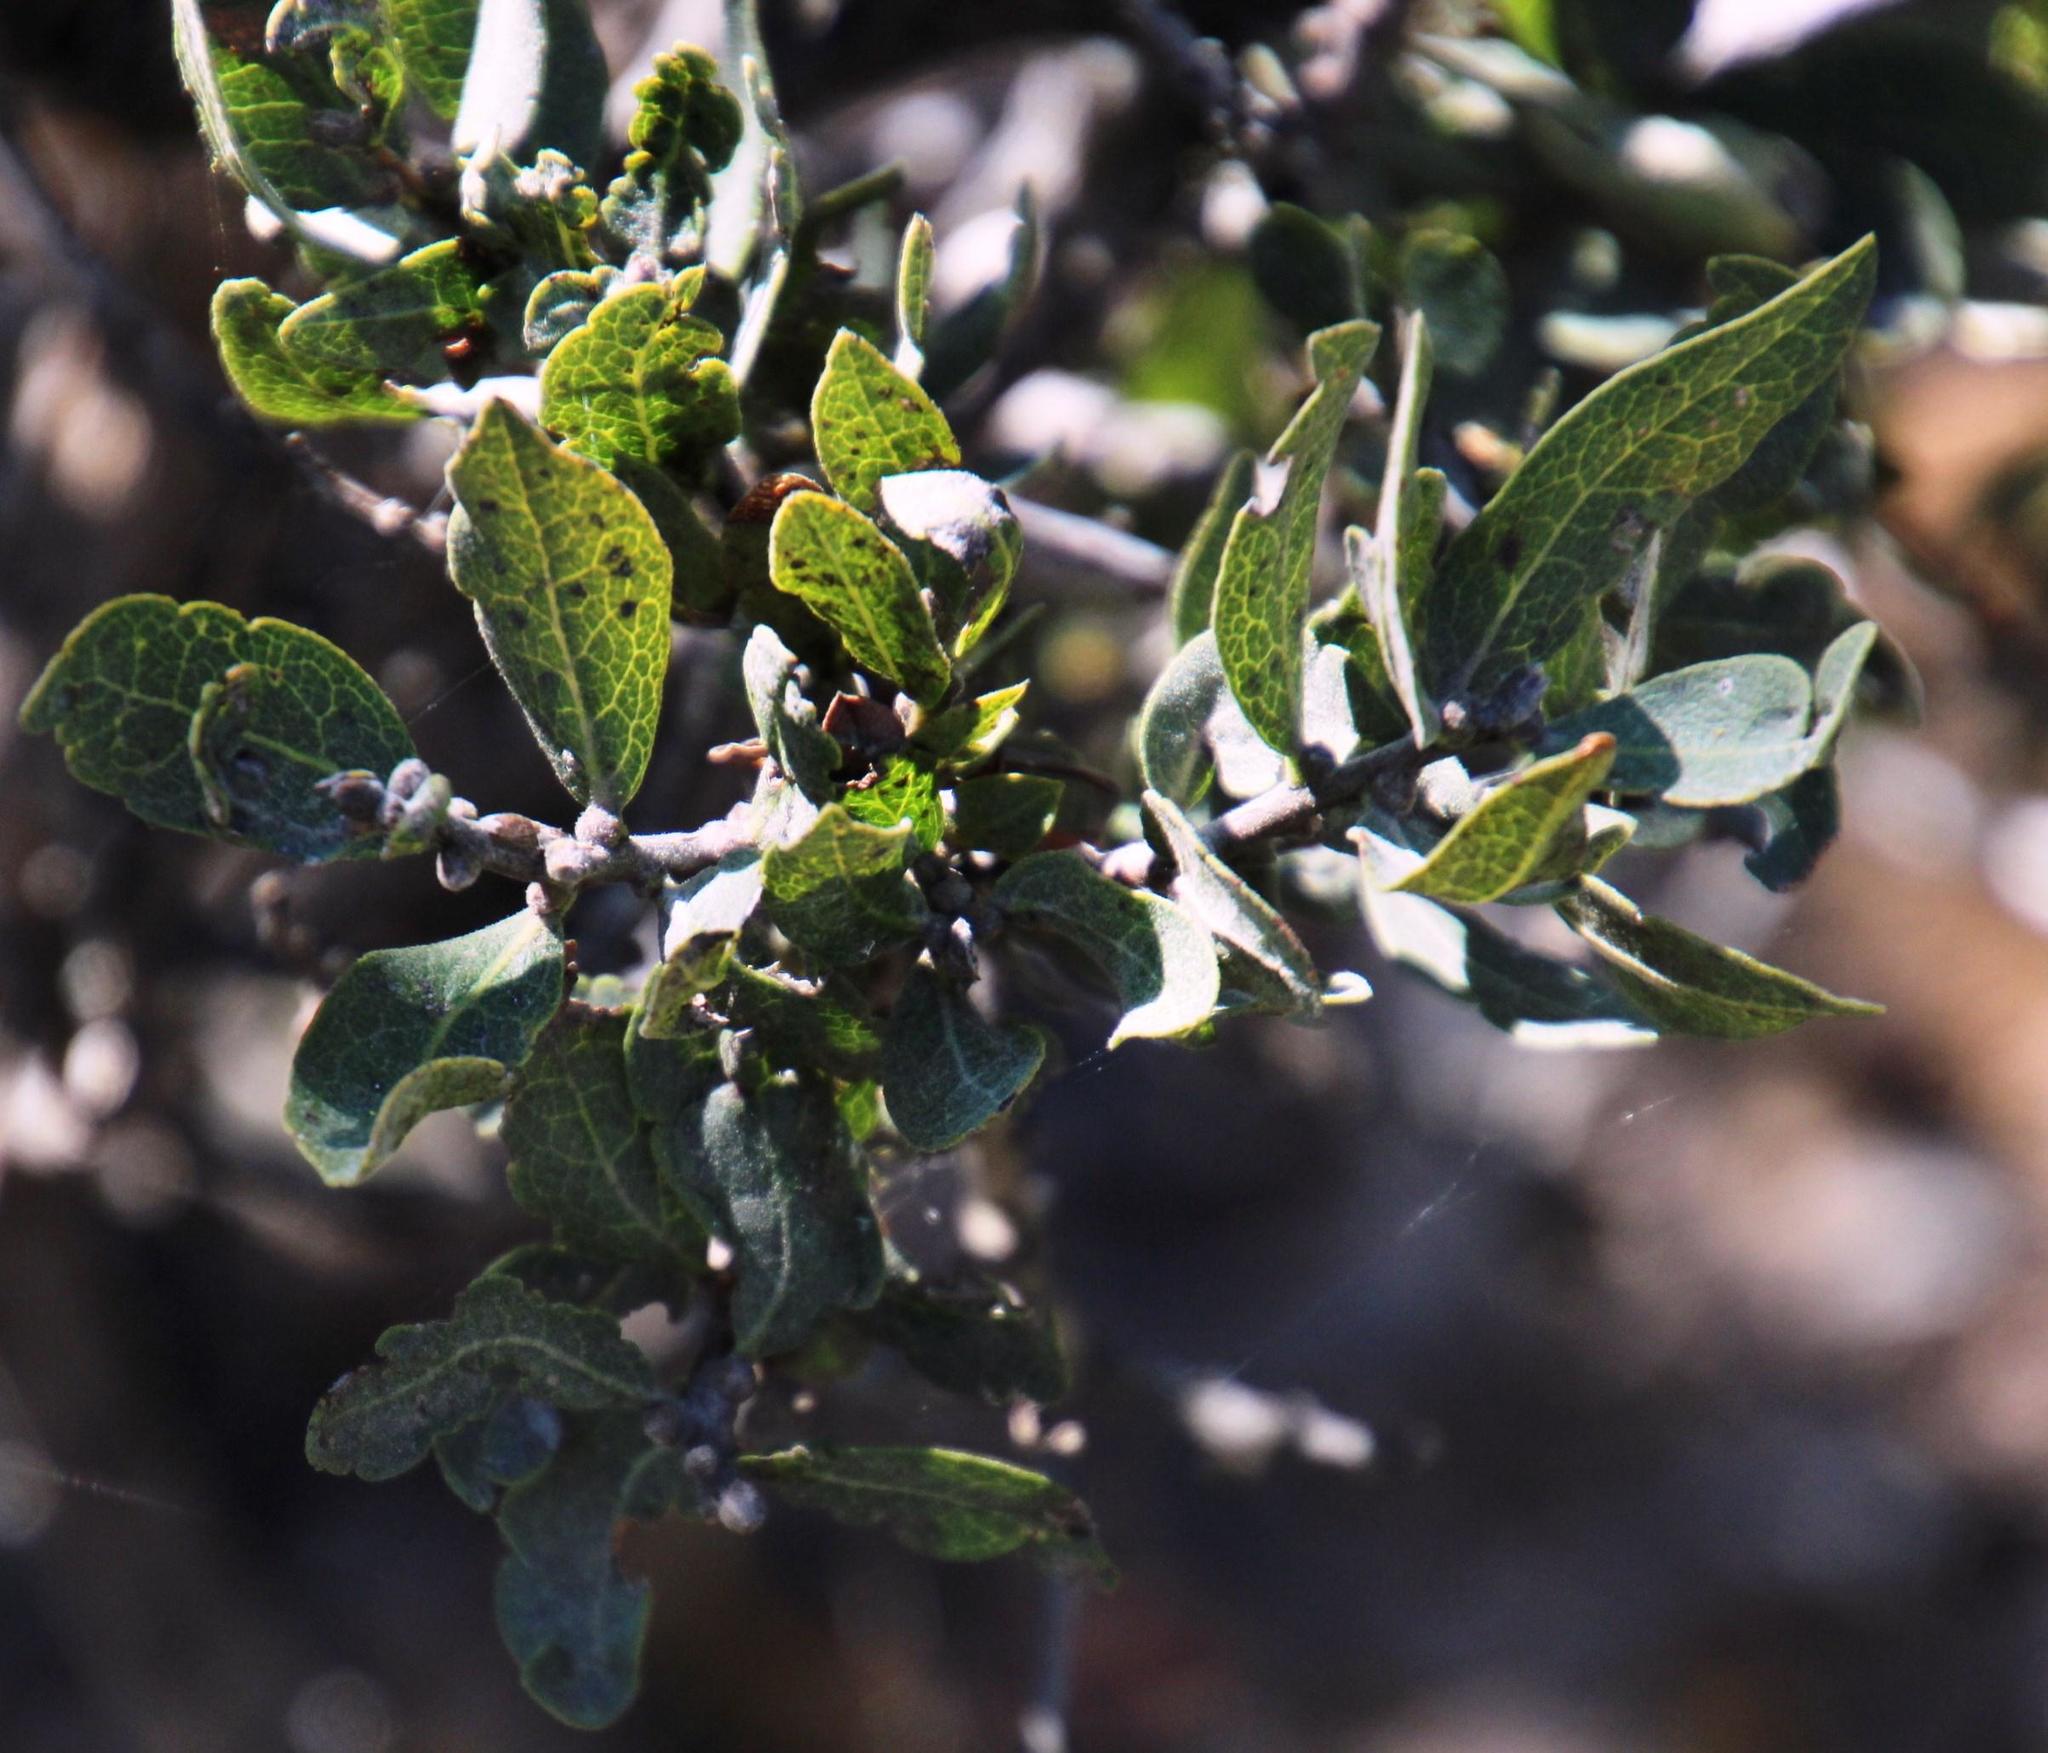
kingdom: Plantae
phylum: Tracheophyta
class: Magnoliopsida
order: Ericales
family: Ebenaceae
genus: Euclea
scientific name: Euclea tomentosa
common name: Honey guarri
